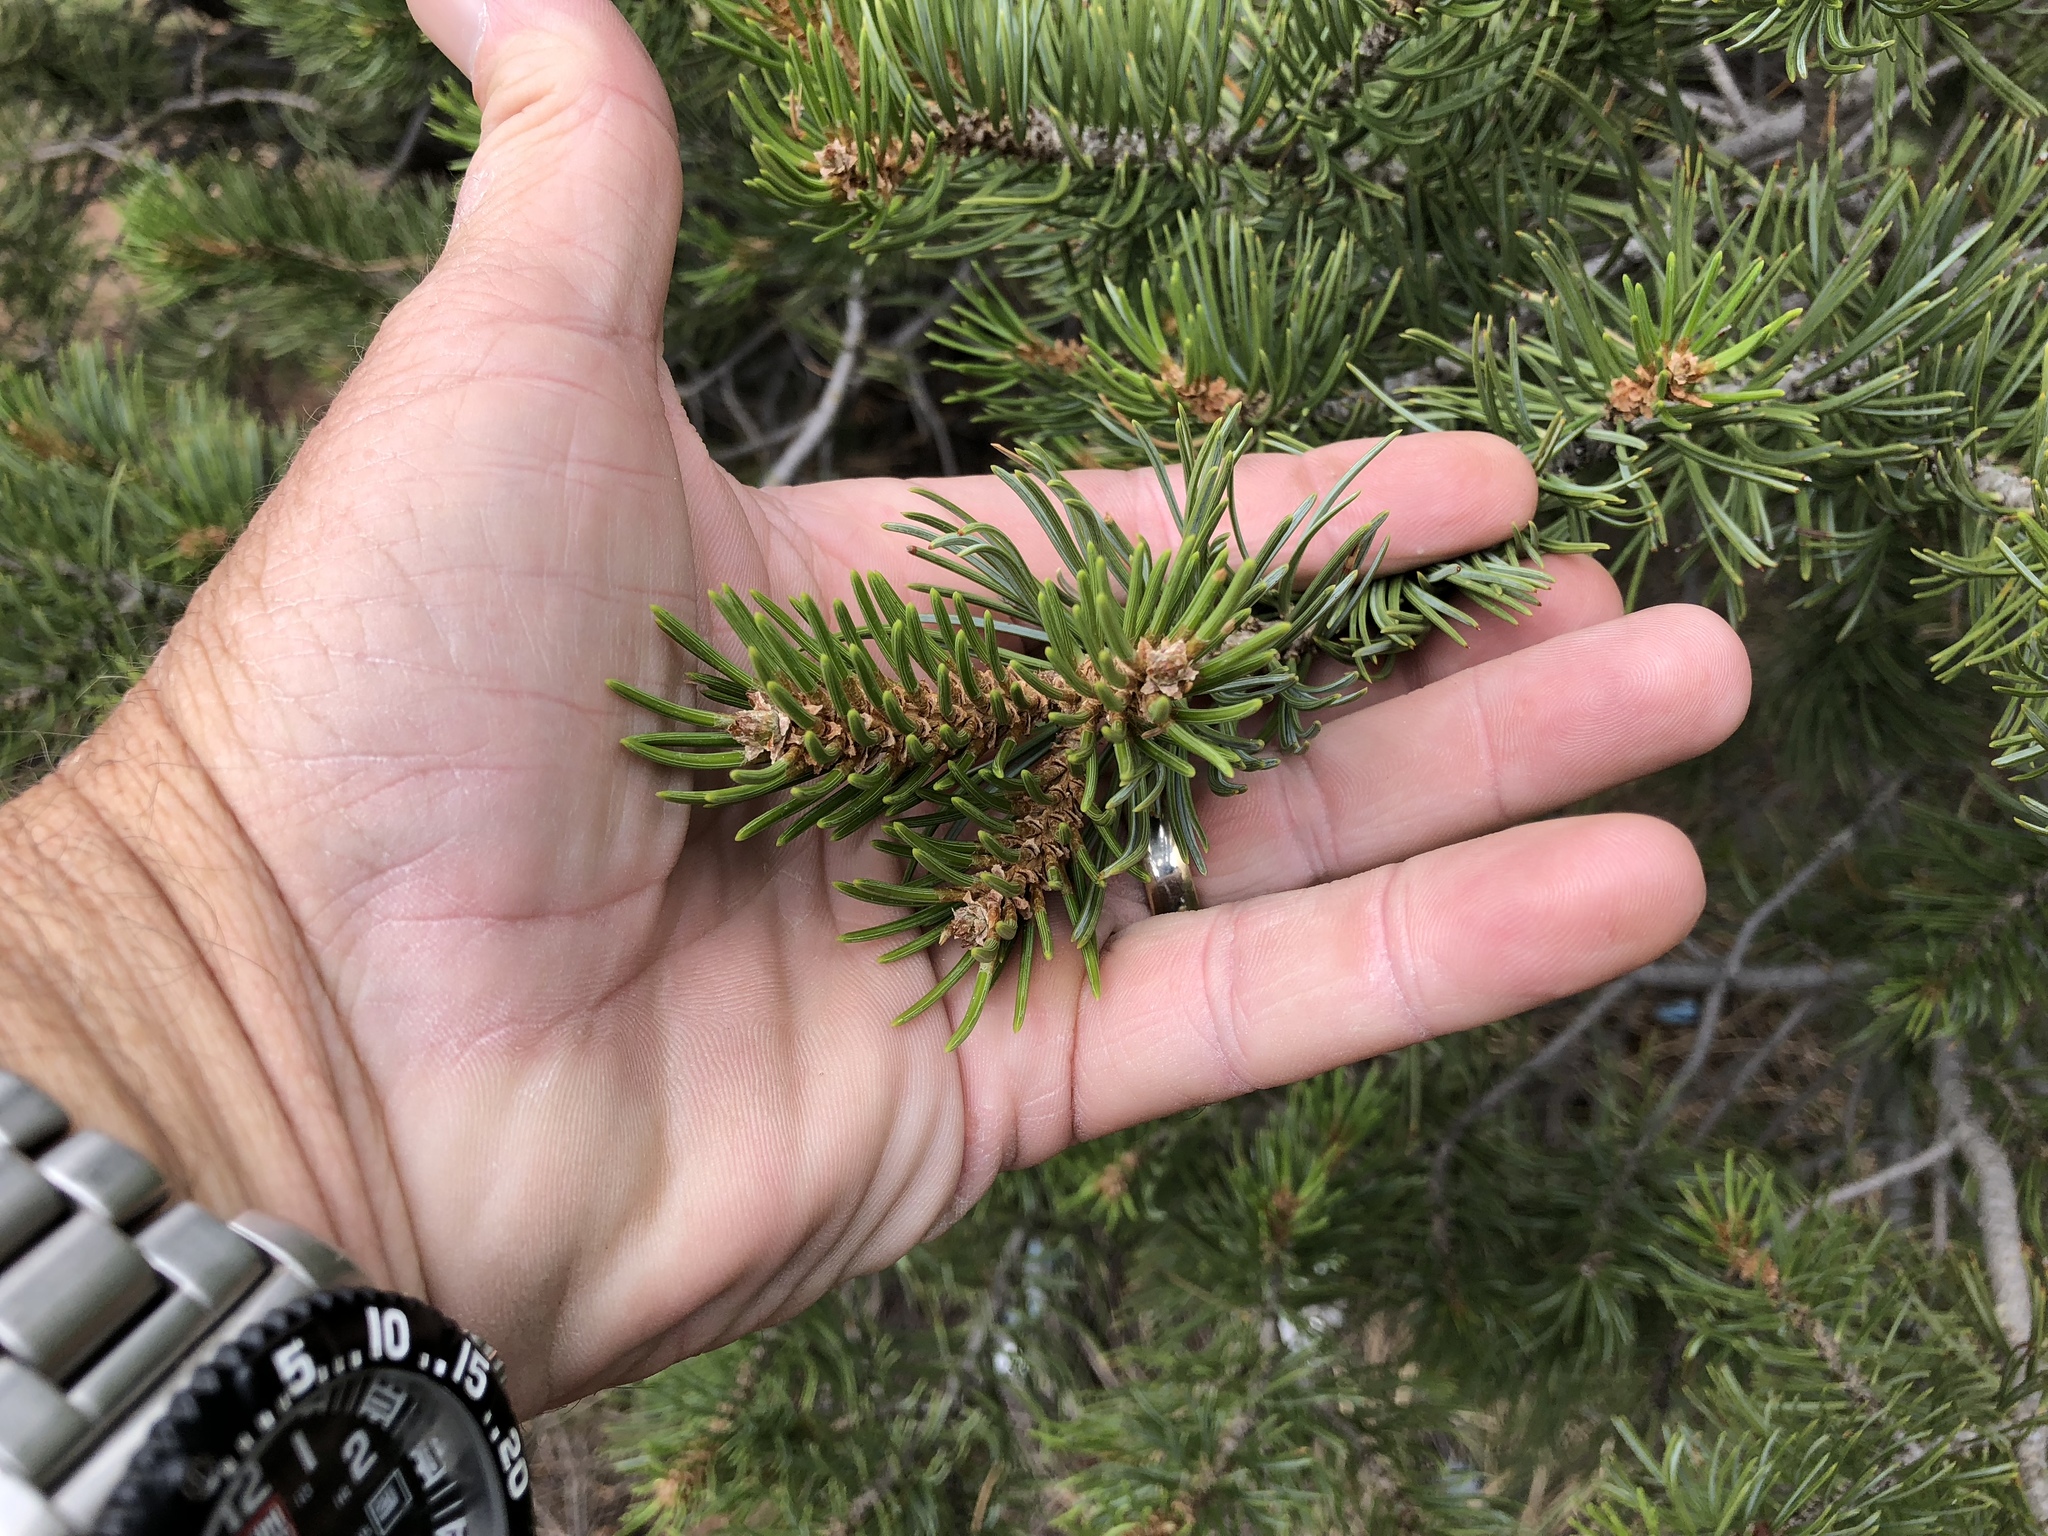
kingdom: Plantae
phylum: Tracheophyta
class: Pinopsida
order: Pinales
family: Pinaceae
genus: Pinus
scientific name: Pinus edulis
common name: Colorado pinyon
